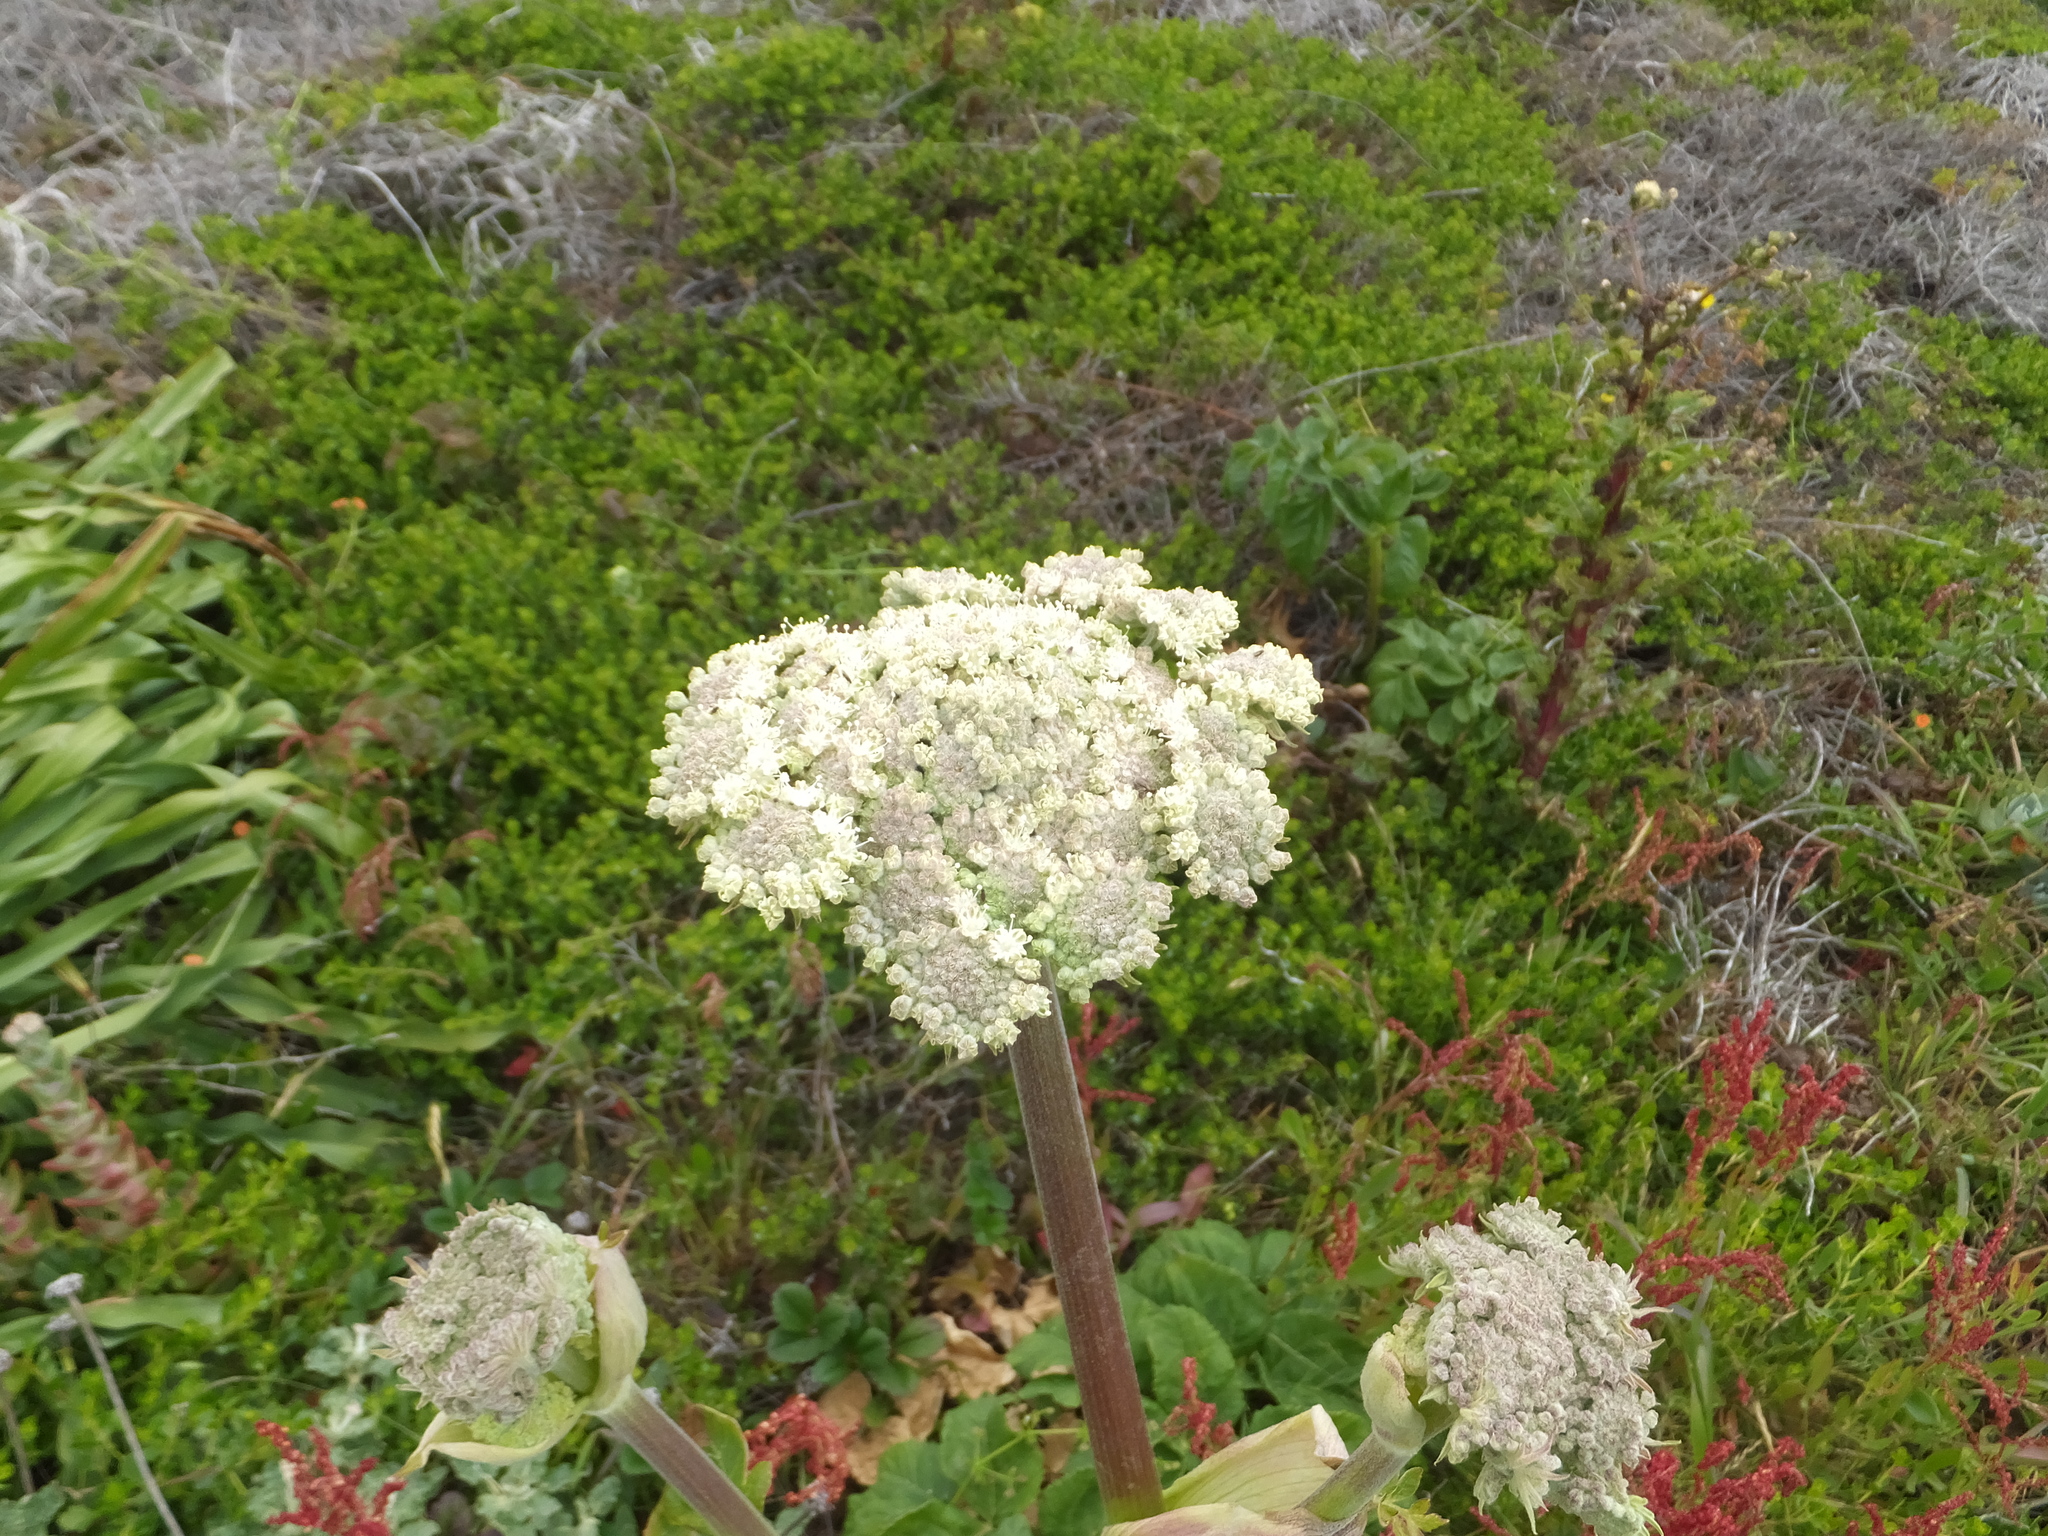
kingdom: Plantae
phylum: Tracheophyta
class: Magnoliopsida
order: Apiales
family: Apiaceae
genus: Angelica
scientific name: Angelica hendersonii
